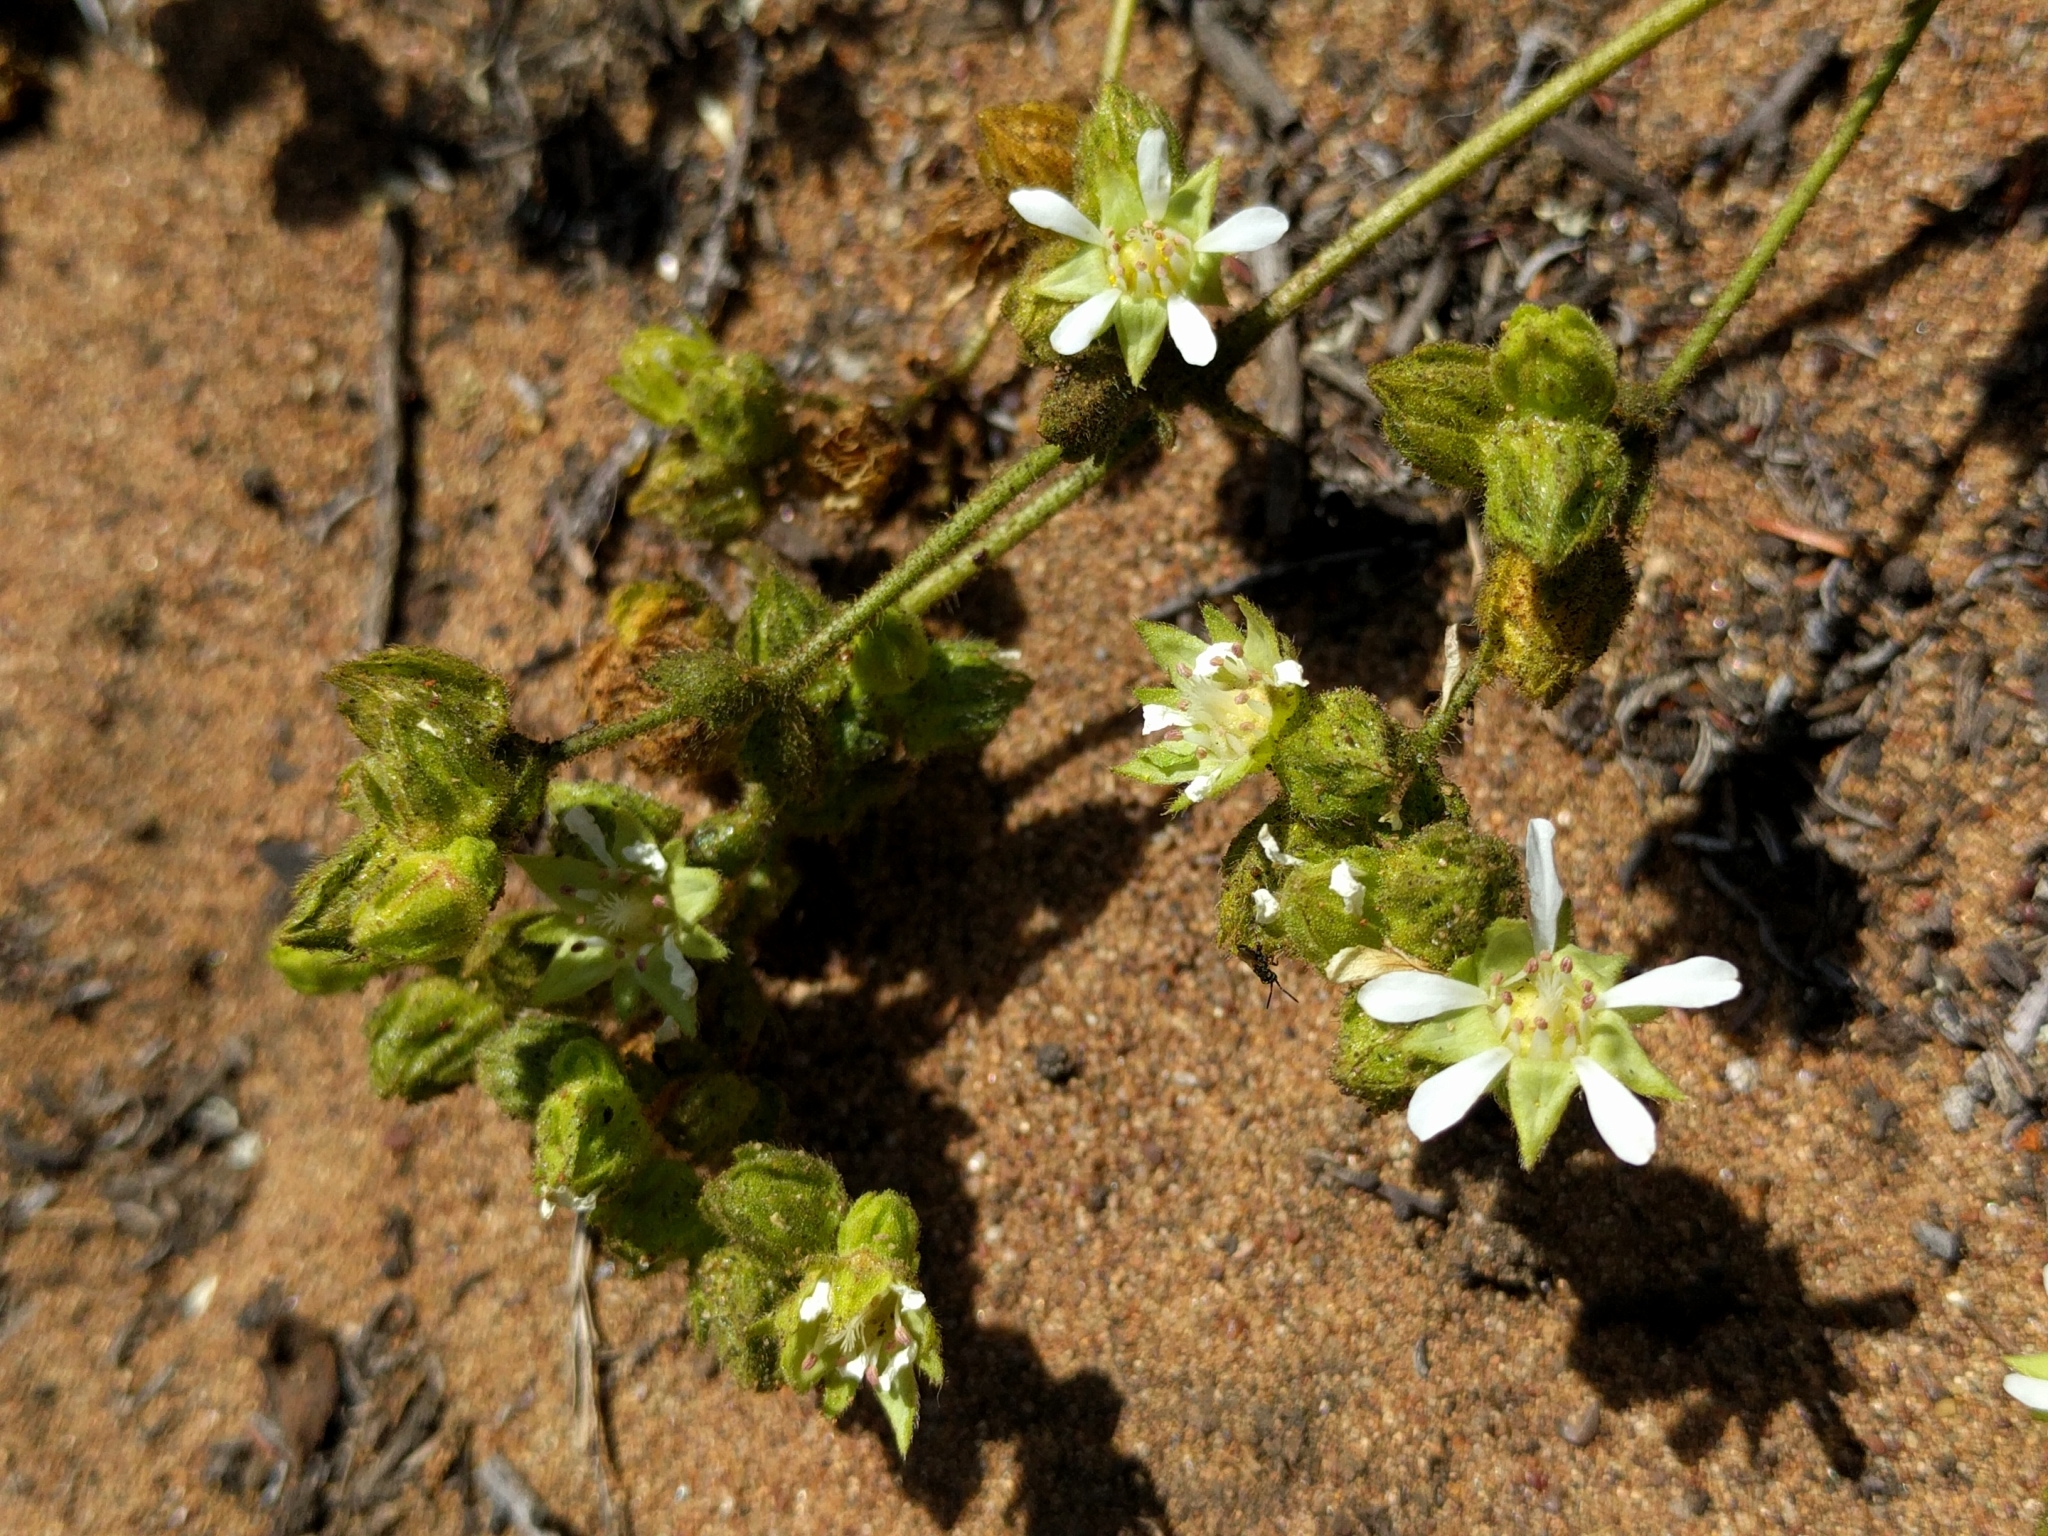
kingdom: Plantae
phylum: Tracheophyta
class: Magnoliopsida
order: Rosales
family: Rosaceae
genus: Potentilla
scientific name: Potentilla
